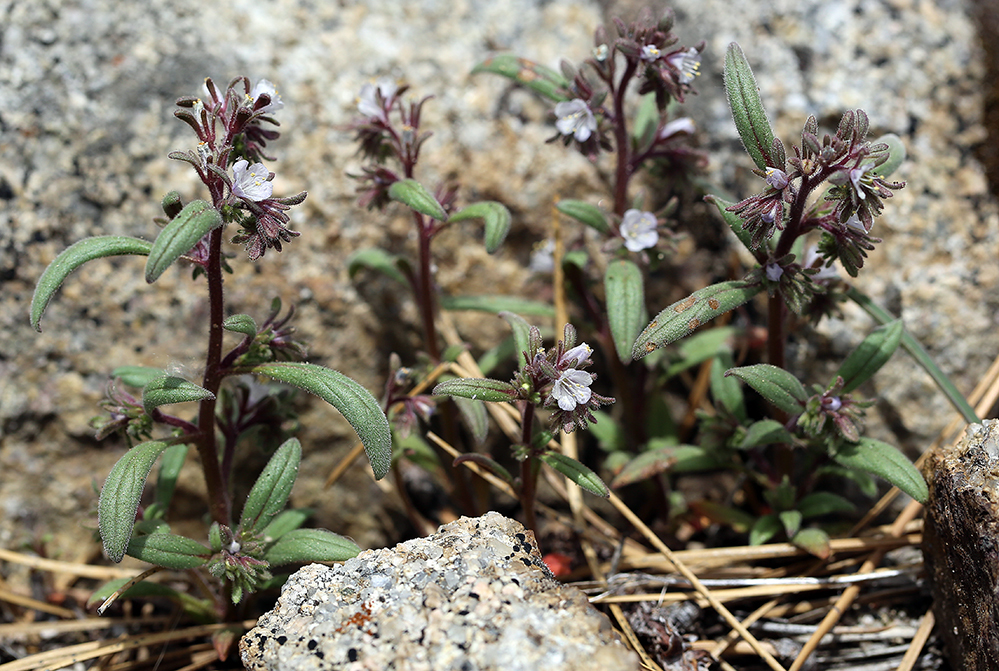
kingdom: Plantae
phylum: Tracheophyta
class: Magnoliopsida
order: Boraginales
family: Hydrophyllaceae
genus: Phacelia
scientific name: Phacelia quickii
